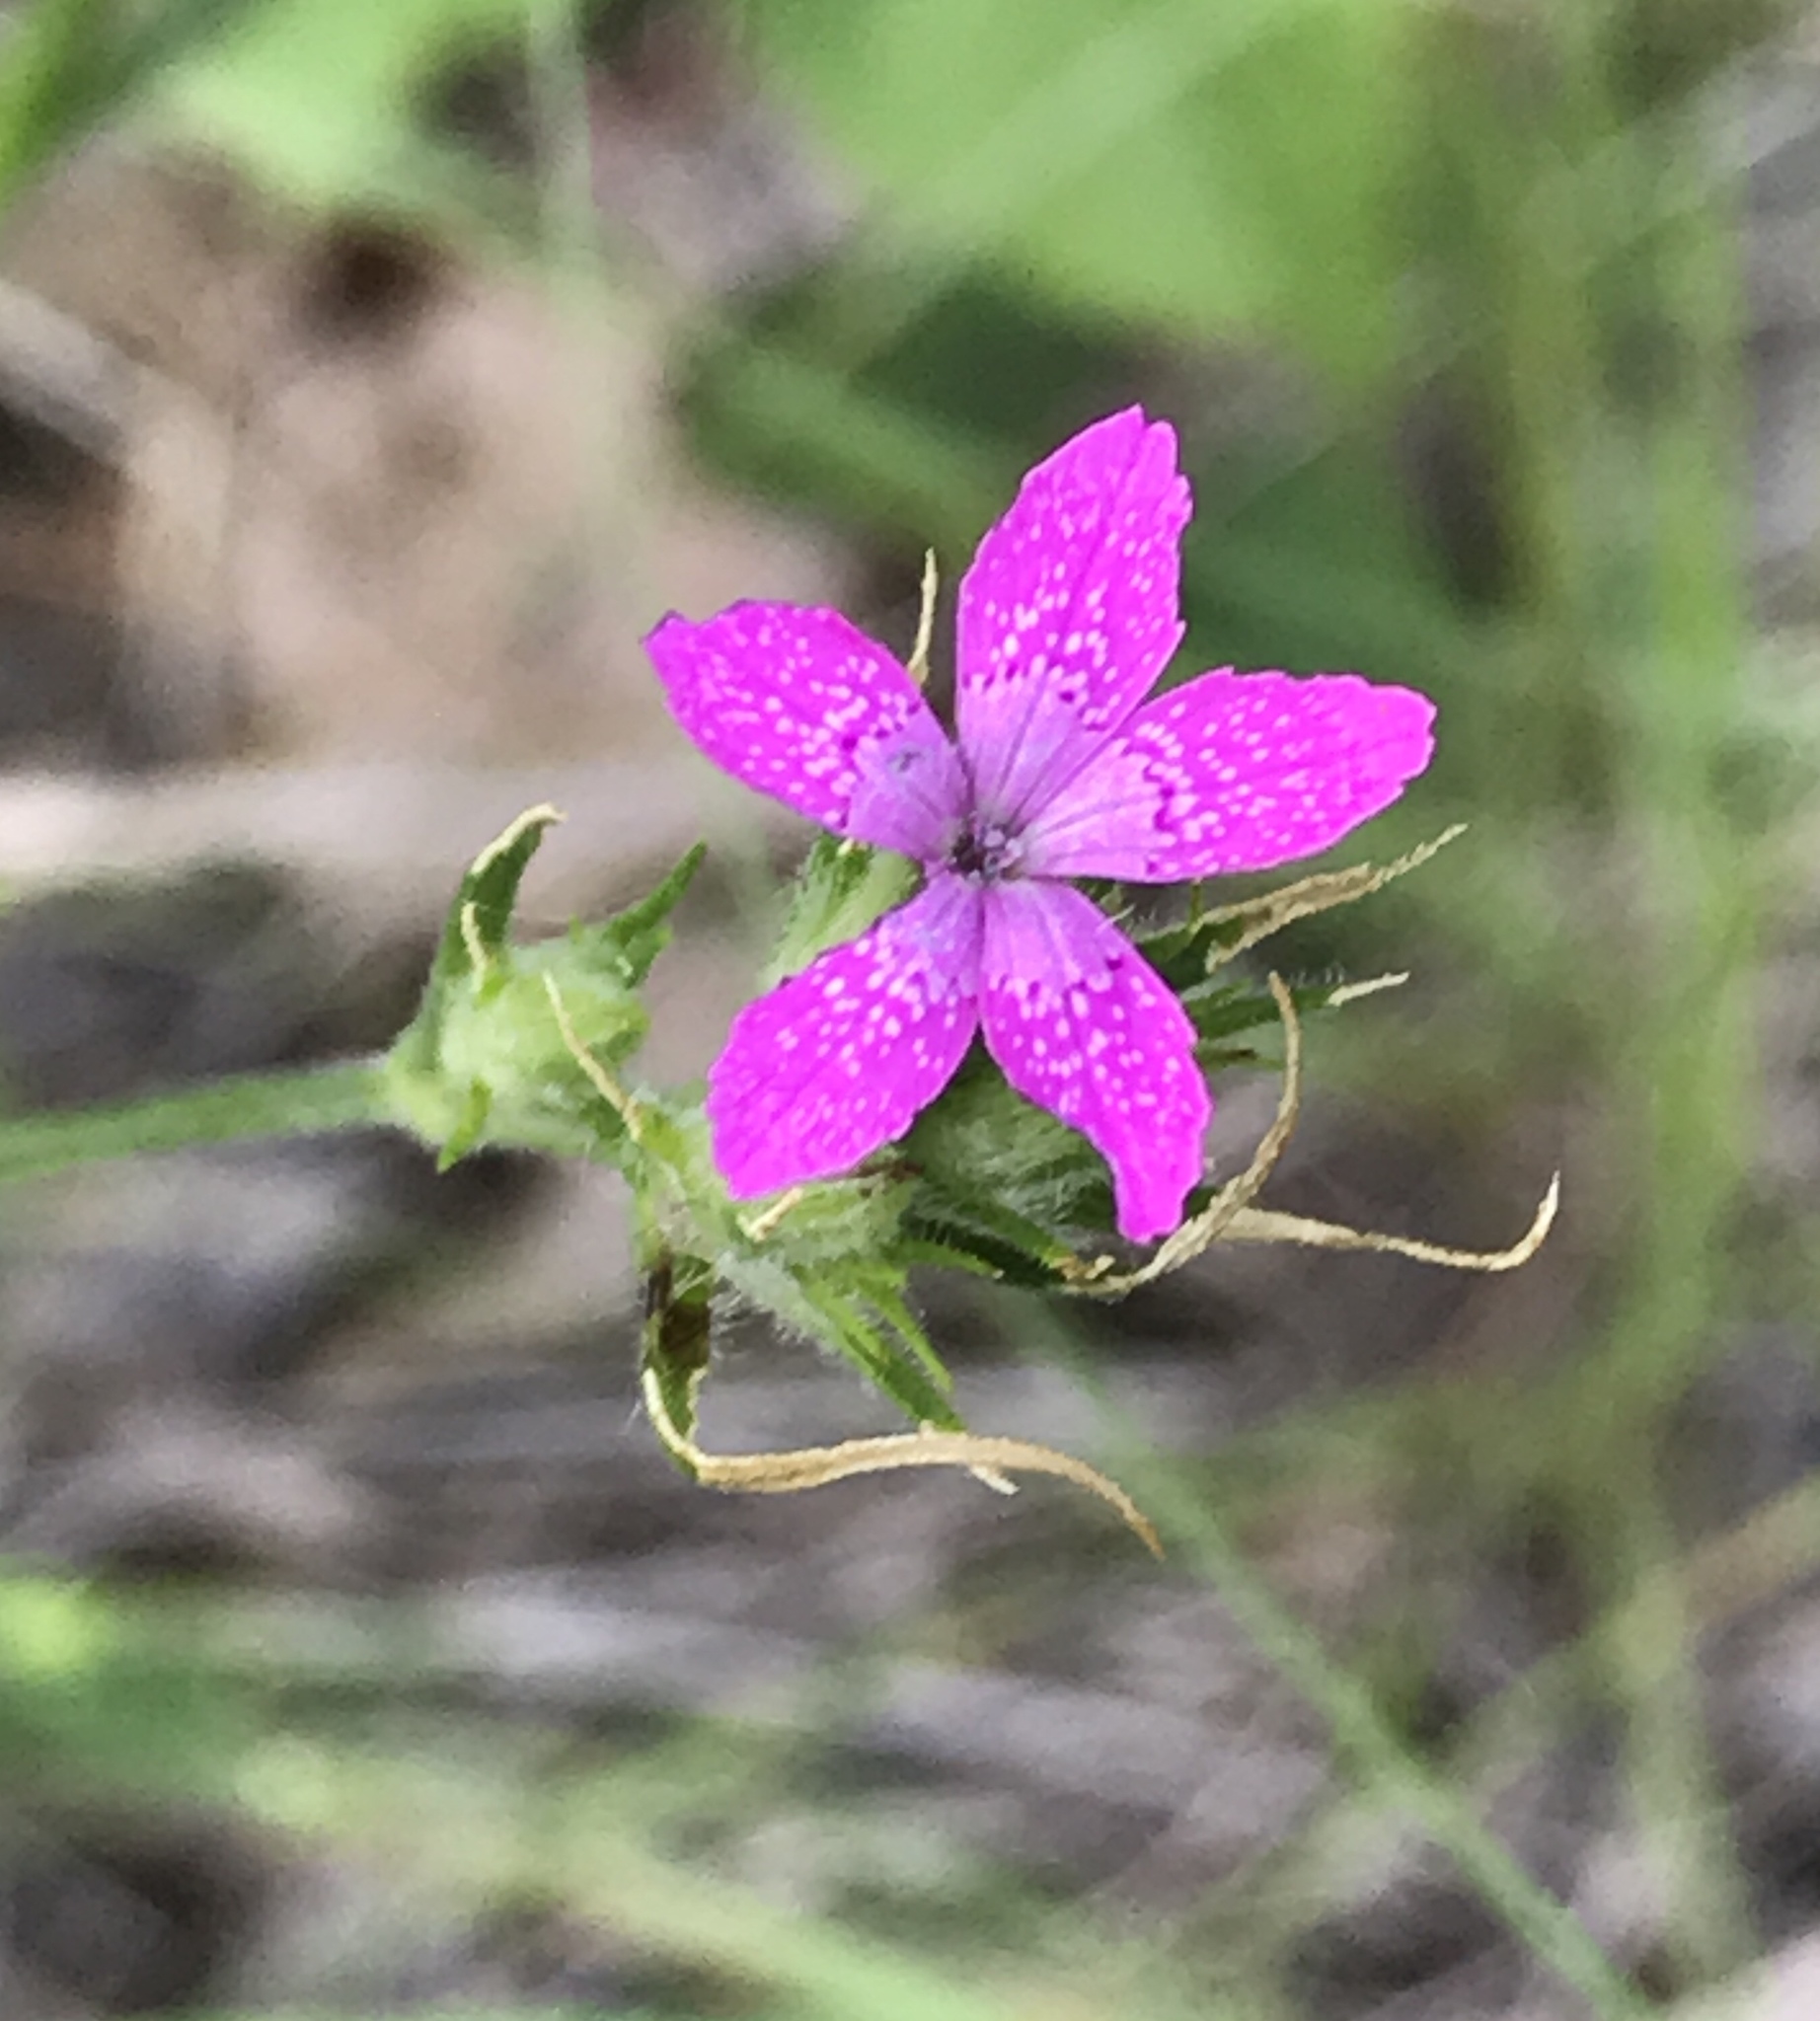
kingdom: Plantae
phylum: Tracheophyta
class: Magnoliopsida
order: Caryophyllales
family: Caryophyllaceae
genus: Dianthus
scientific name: Dianthus armeria
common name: Deptford pink
